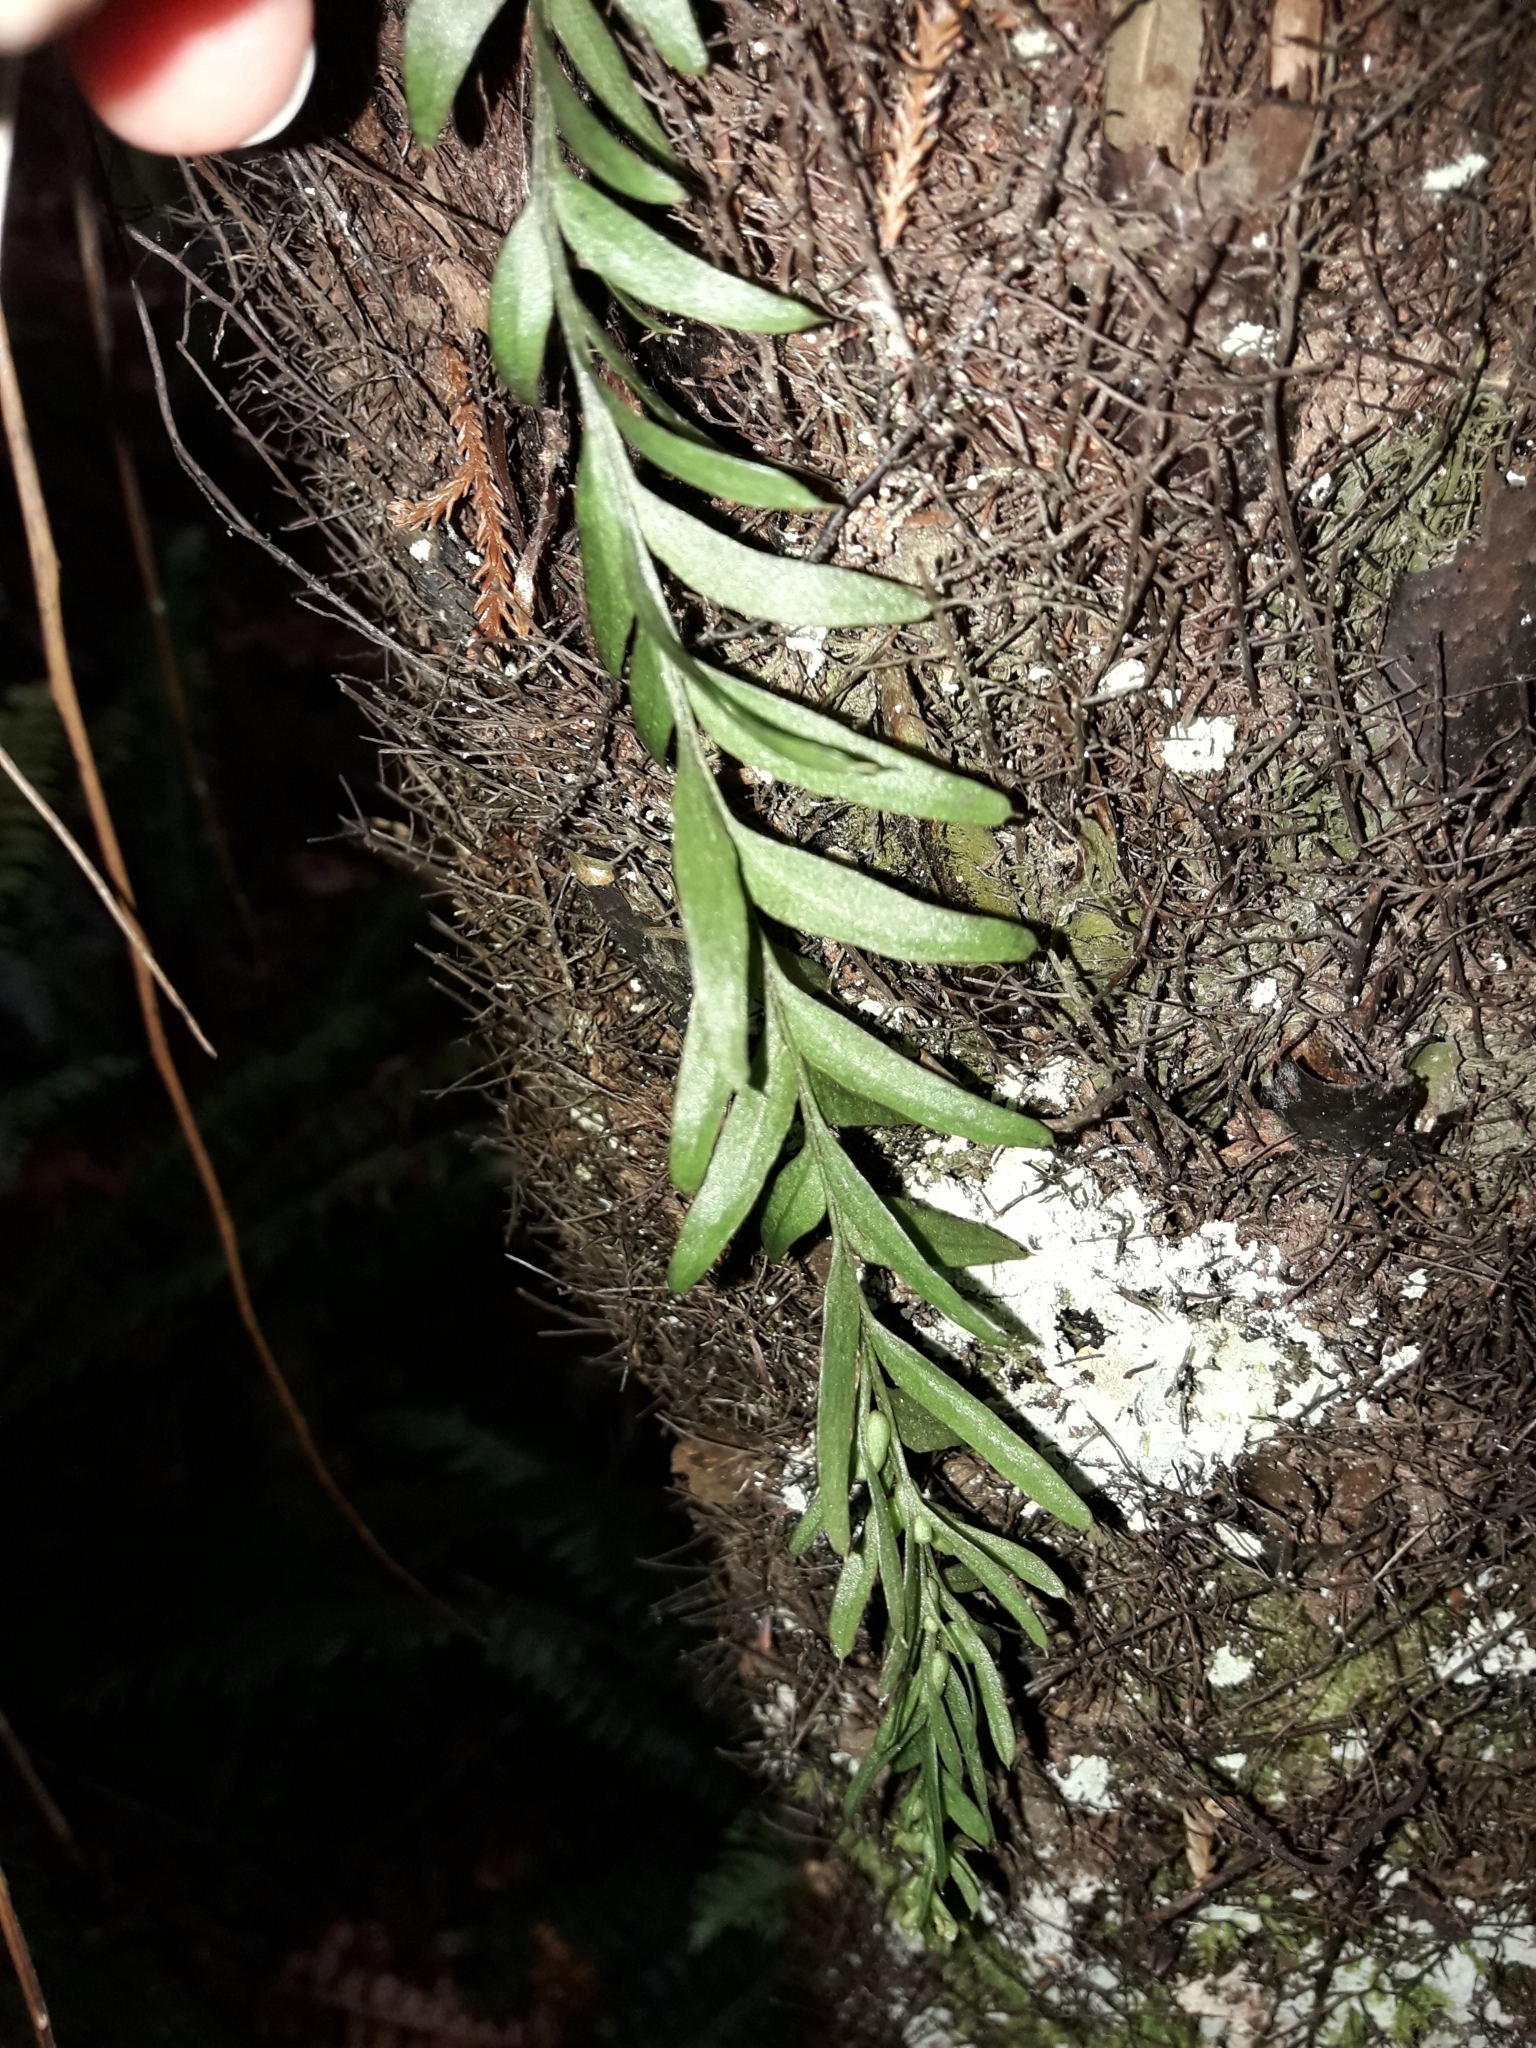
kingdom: Plantae
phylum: Tracheophyta
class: Polypodiopsida
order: Psilotales
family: Psilotaceae
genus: Tmesipteris
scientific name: Tmesipteris elongata
